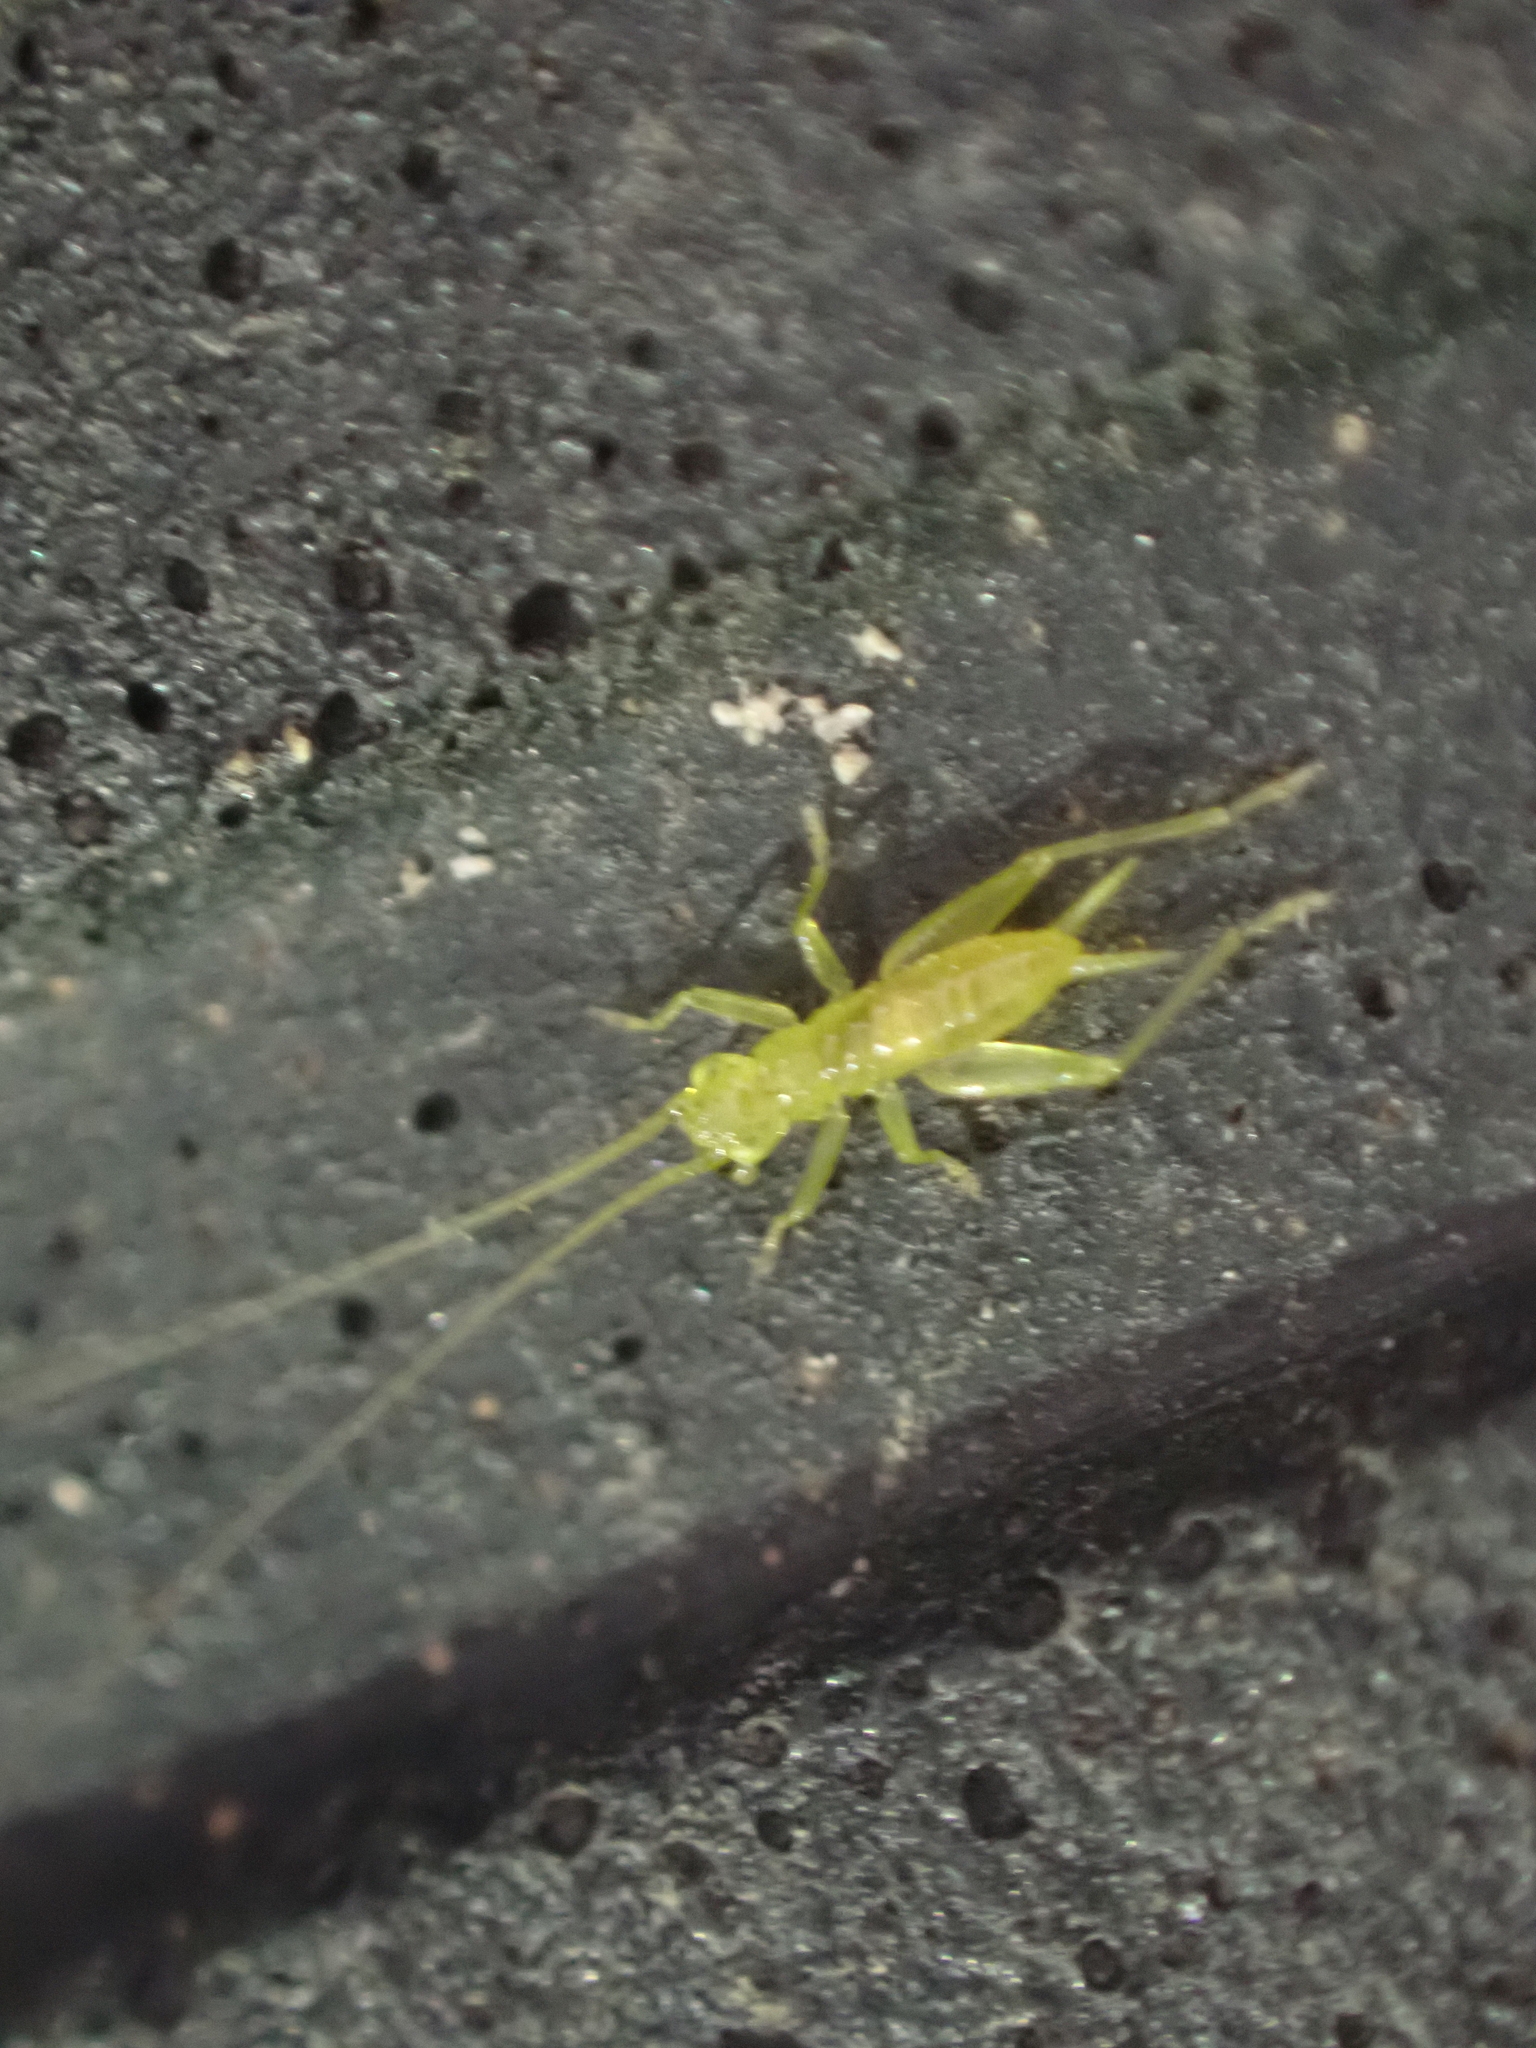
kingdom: Animalia
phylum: Arthropoda
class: Insecta
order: Orthoptera
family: Trigonidiidae
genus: Cyrtoxipha
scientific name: Cyrtoxipha columbiana
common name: Columbian trig
